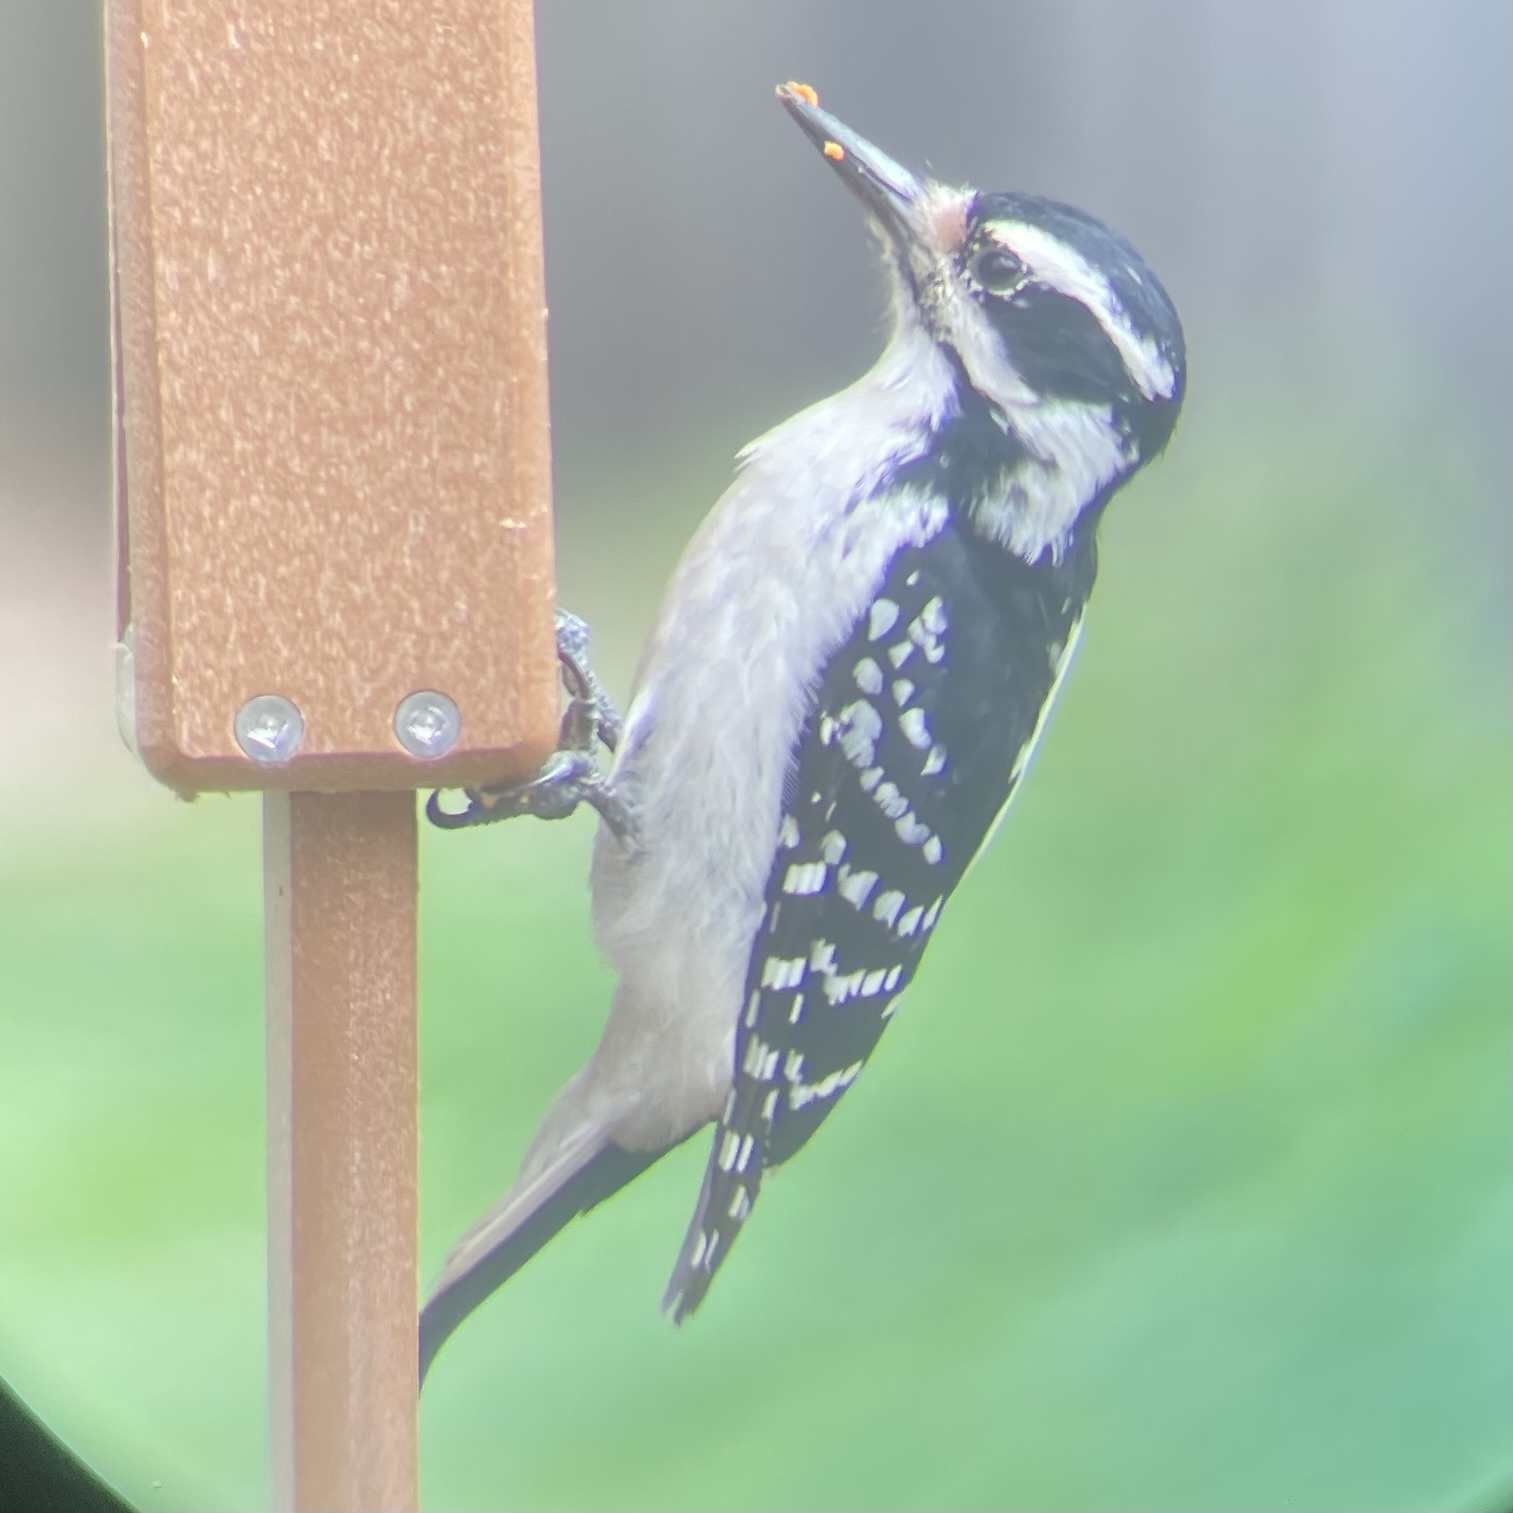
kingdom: Animalia
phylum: Chordata
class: Aves
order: Piciformes
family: Picidae
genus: Leuconotopicus
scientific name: Leuconotopicus villosus
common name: Hairy woodpecker
